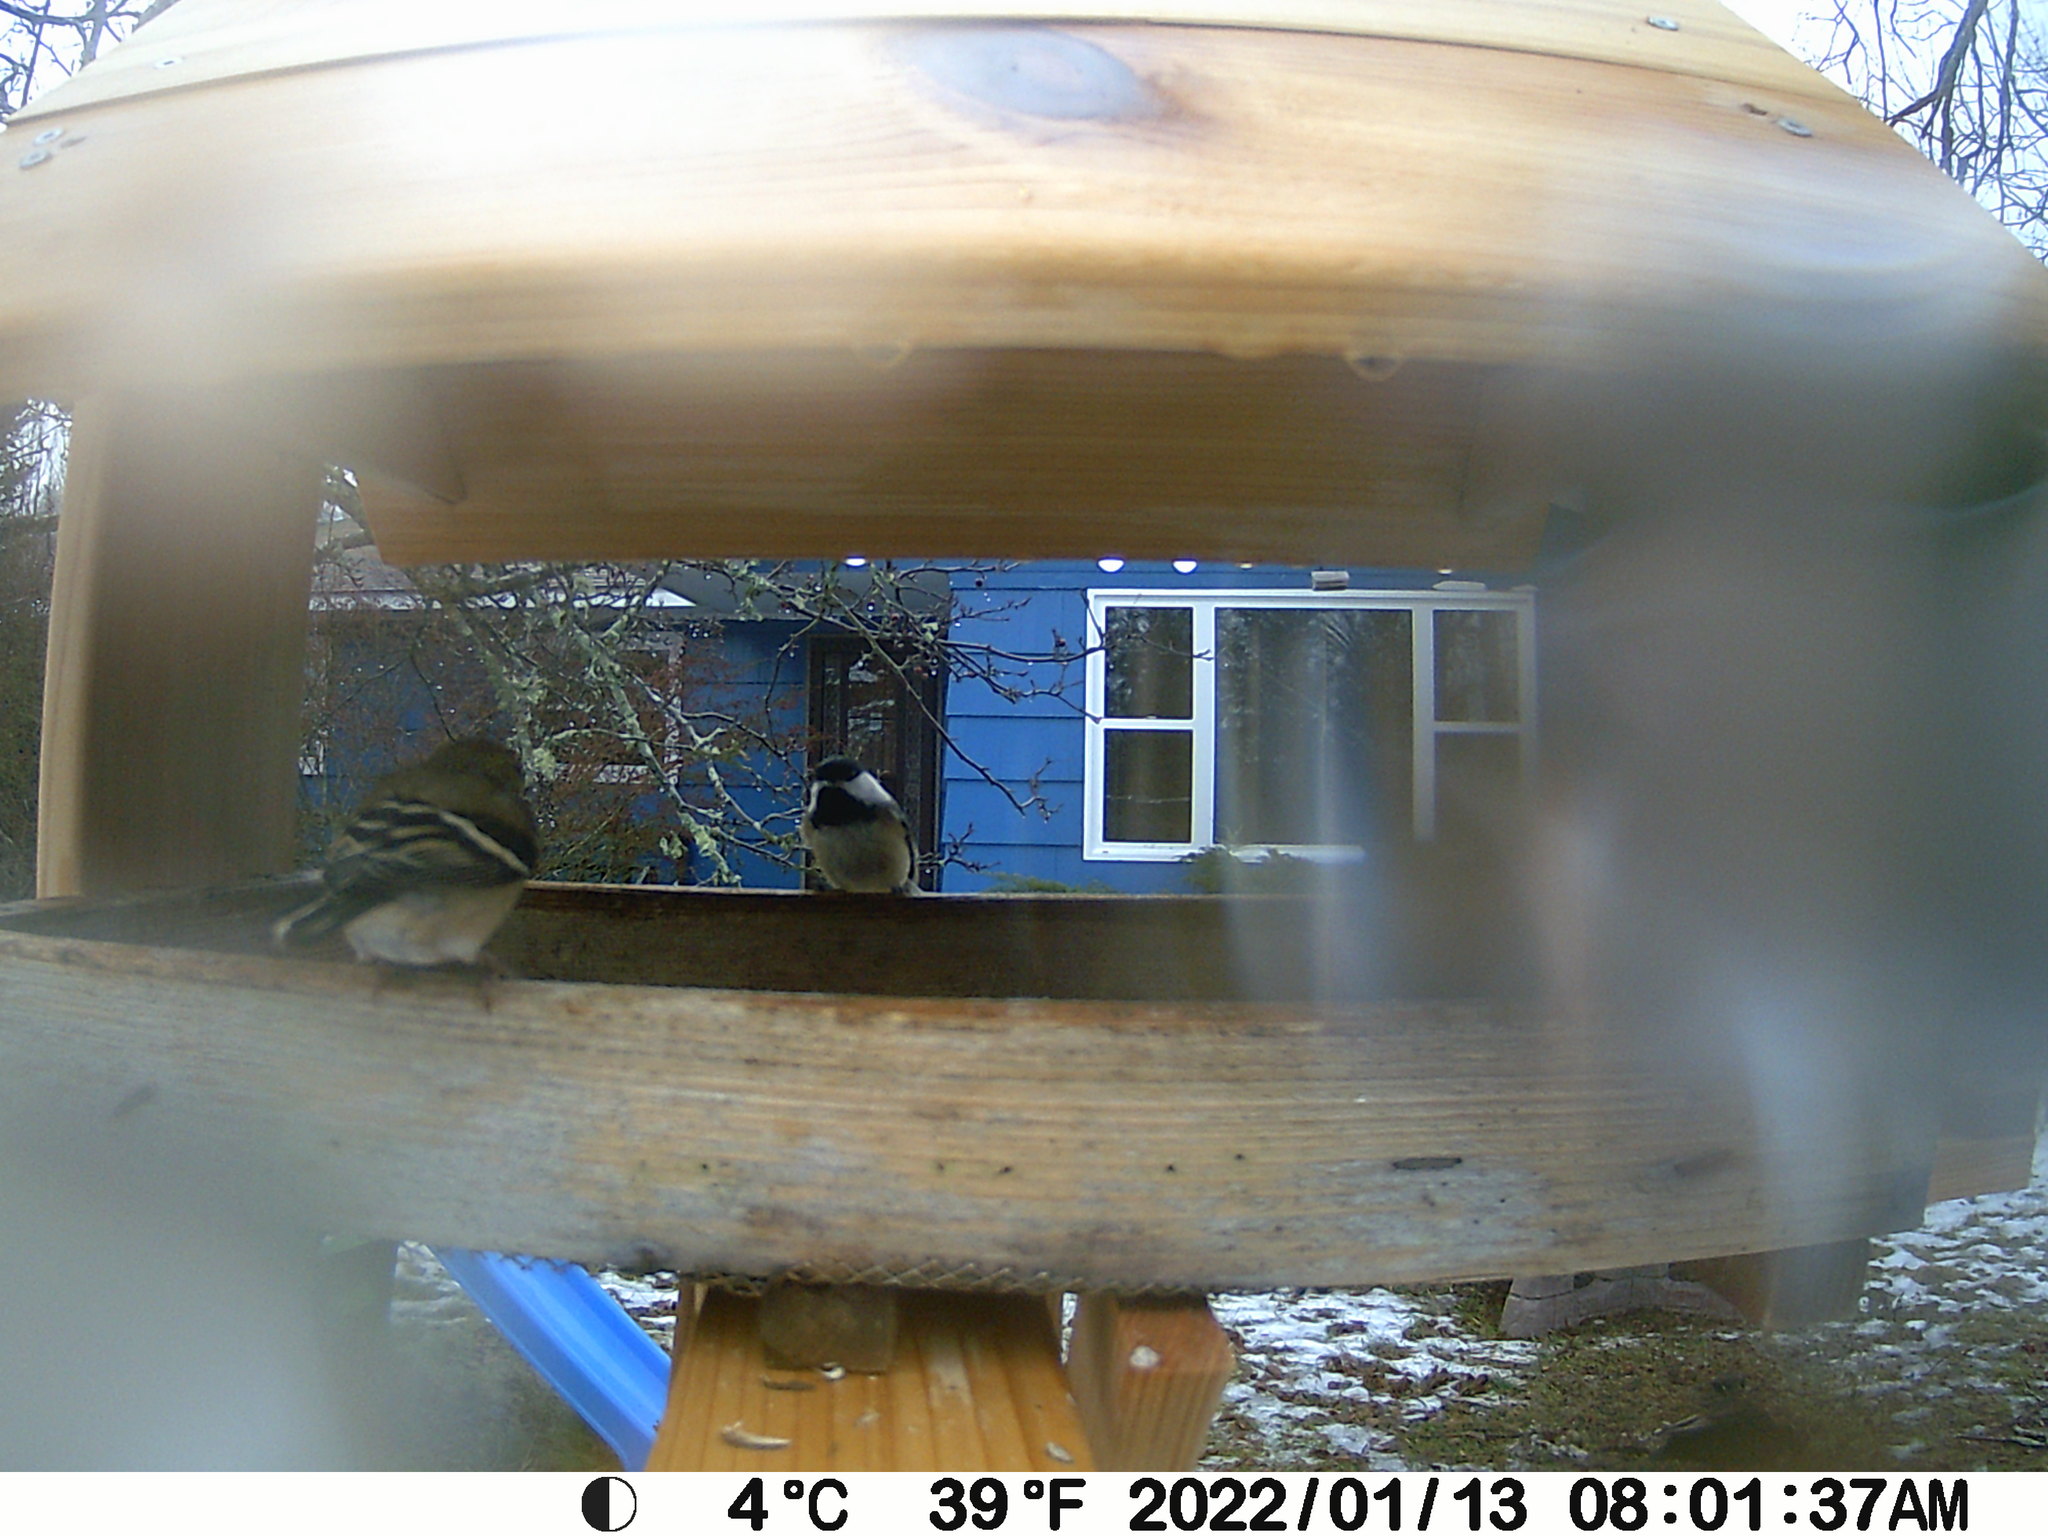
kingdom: Animalia
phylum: Chordata
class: Aves
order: Passeriformes
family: Fringillidae
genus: Spinus
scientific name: Spinus tristis
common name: American goldfinch
